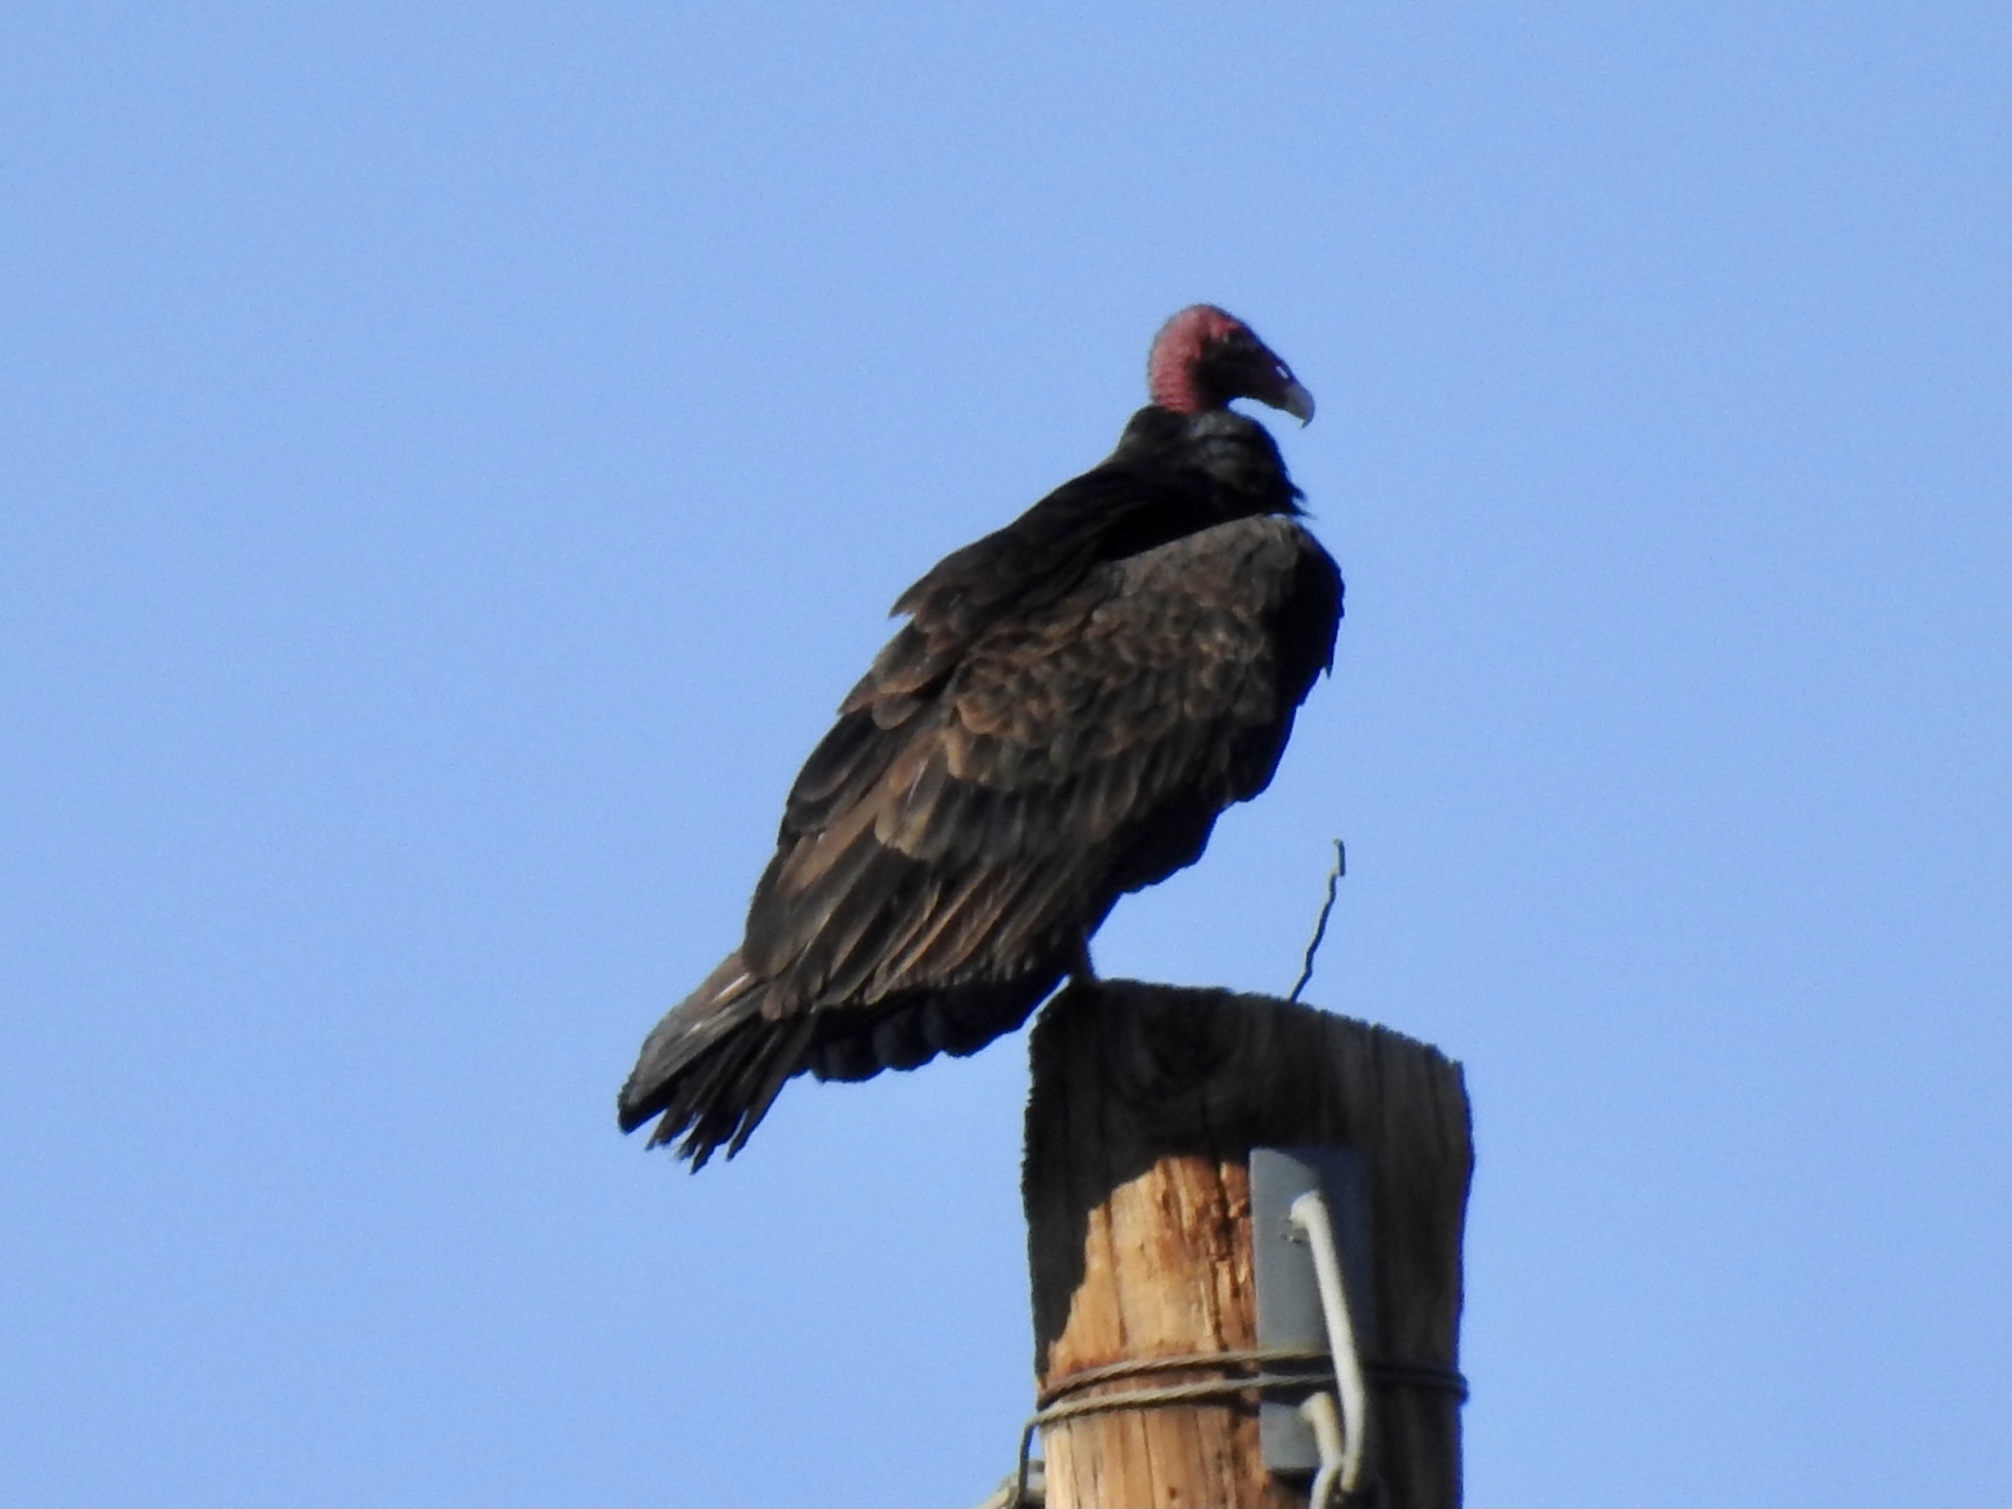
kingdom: Animalia
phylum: Chordata
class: Aves
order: Accipitriformes
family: Cathartidae
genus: Cathartes
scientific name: Cathartes aura
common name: Turkey vulture
